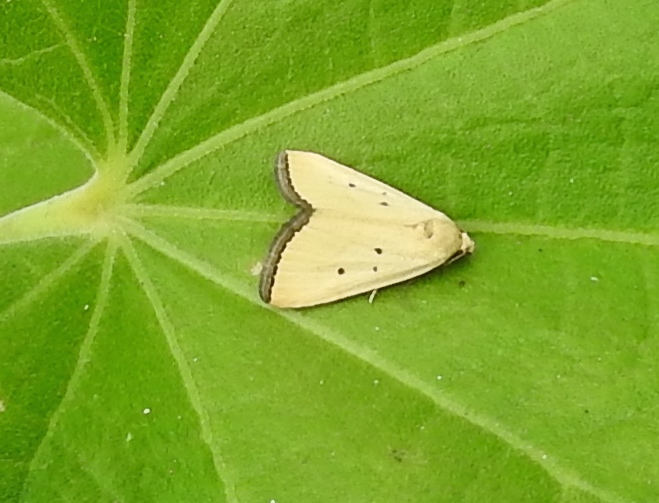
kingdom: Animalia
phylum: Arthropoda
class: Insecta
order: Lepidoptera
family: Noctuidae
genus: Marimatha
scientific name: Marimatha nigrofimbria
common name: Black-bordered lemon moth
